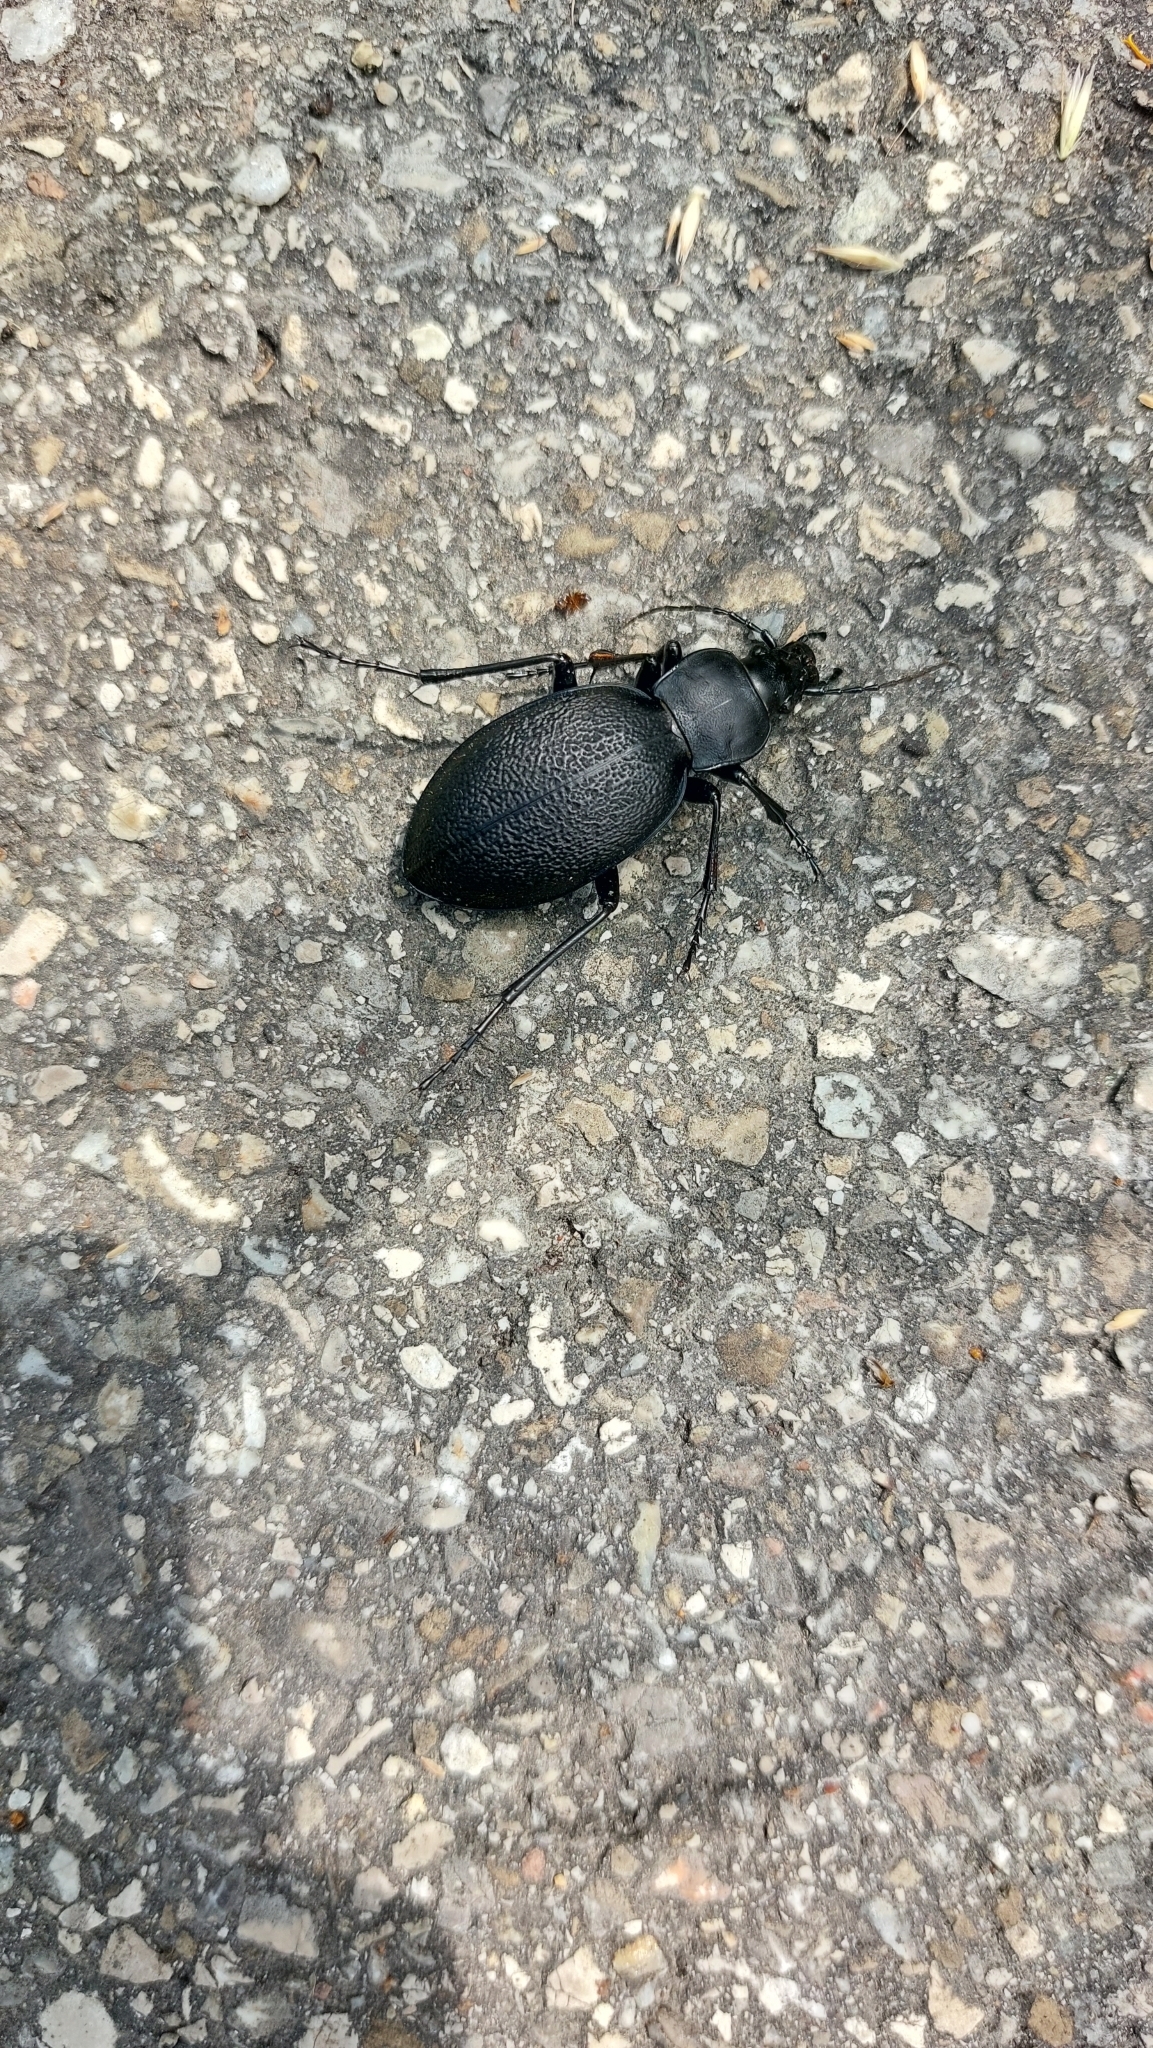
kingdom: Animalia
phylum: Arthropoda
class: Insecta
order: Coleoptera
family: Carabidae
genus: Carabus
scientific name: Carabus coriaceus
